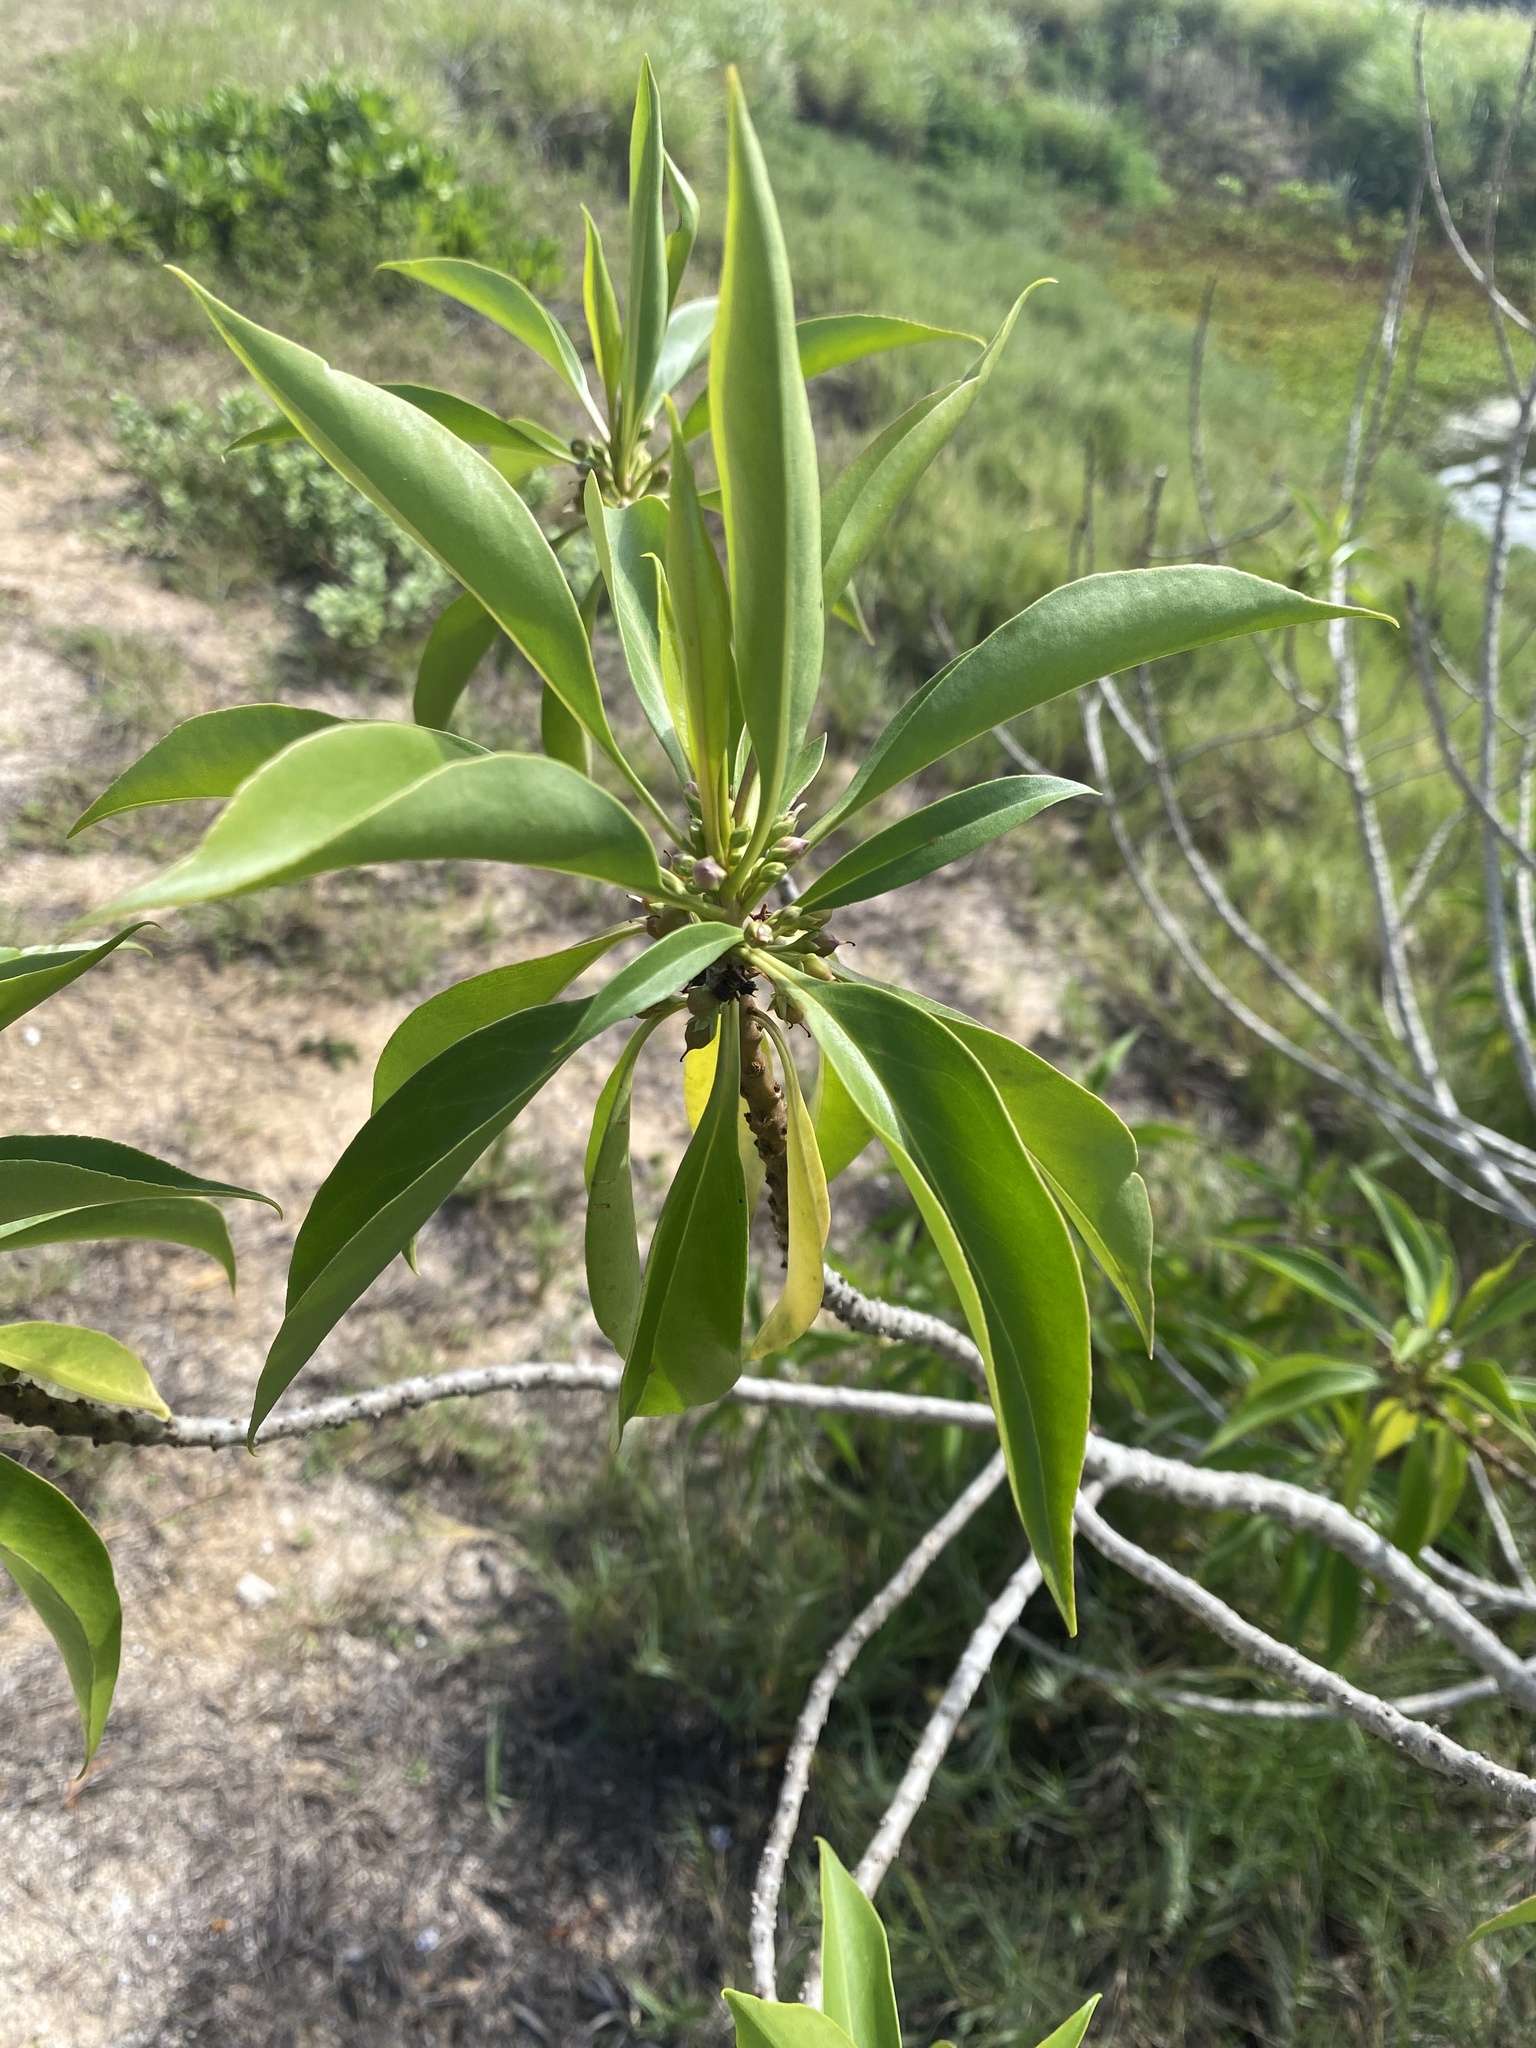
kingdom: Plantae
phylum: Tracheophyta
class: Magnoliopsida
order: Lamiales
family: Scrophulariaceae
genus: Myoporum
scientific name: Myoporum sandwicense
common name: Bastard-sandalwood
